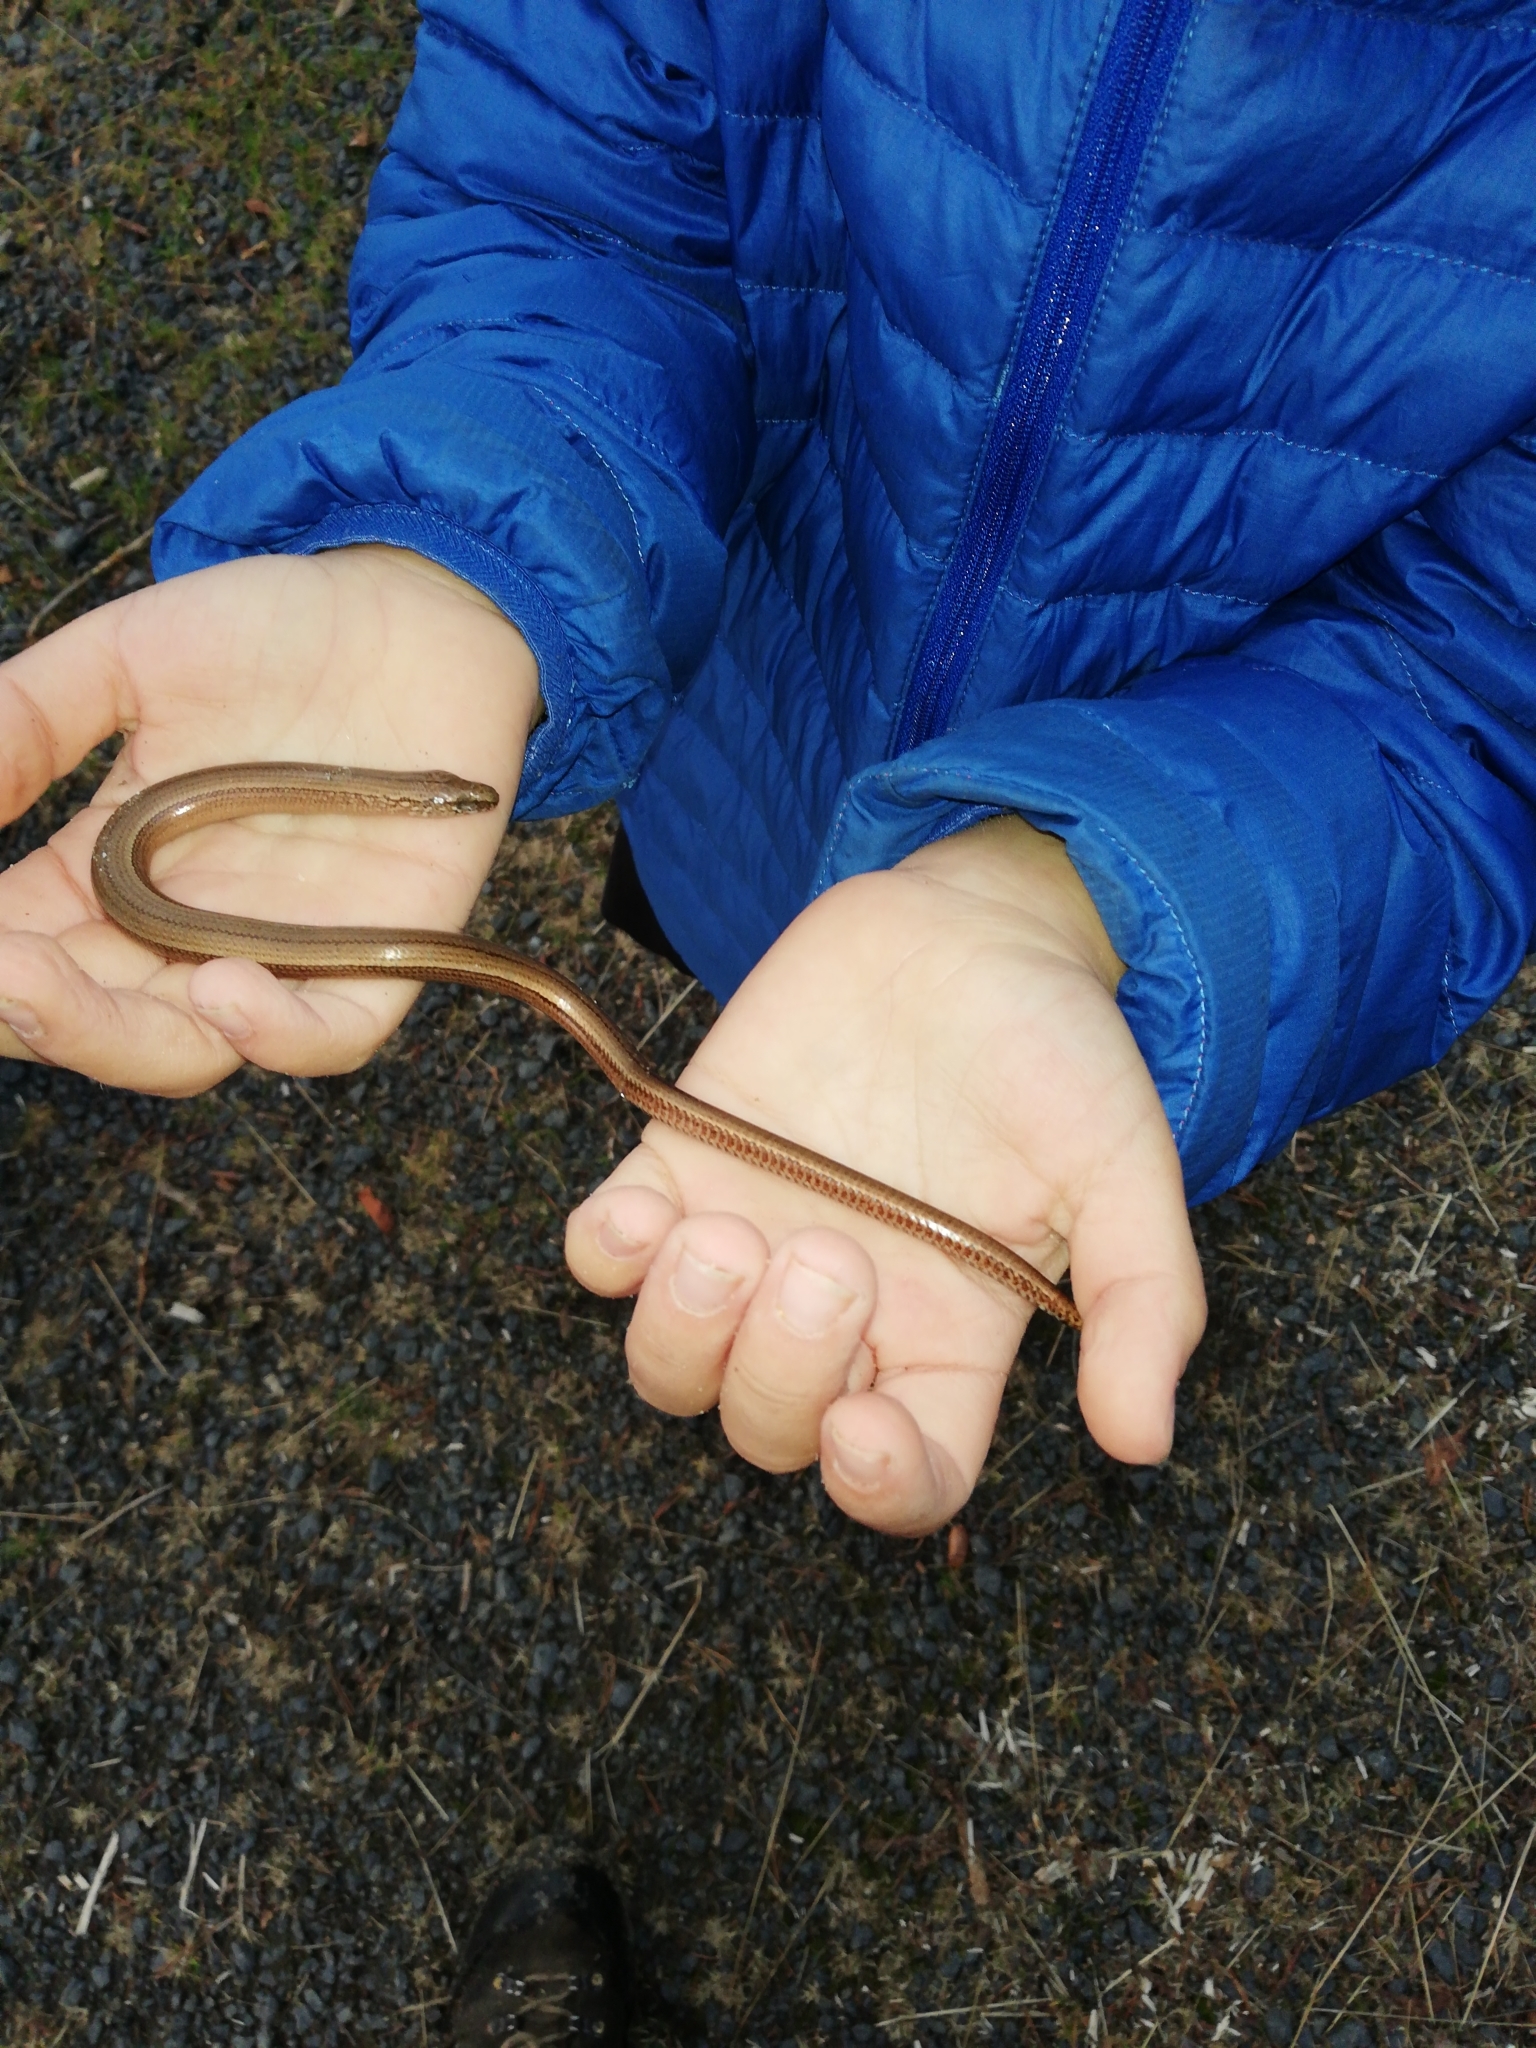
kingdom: Animalia
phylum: Chordata
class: Squamata
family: Anguidae
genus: Anguis
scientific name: Anguis fragilis
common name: Slow worm
